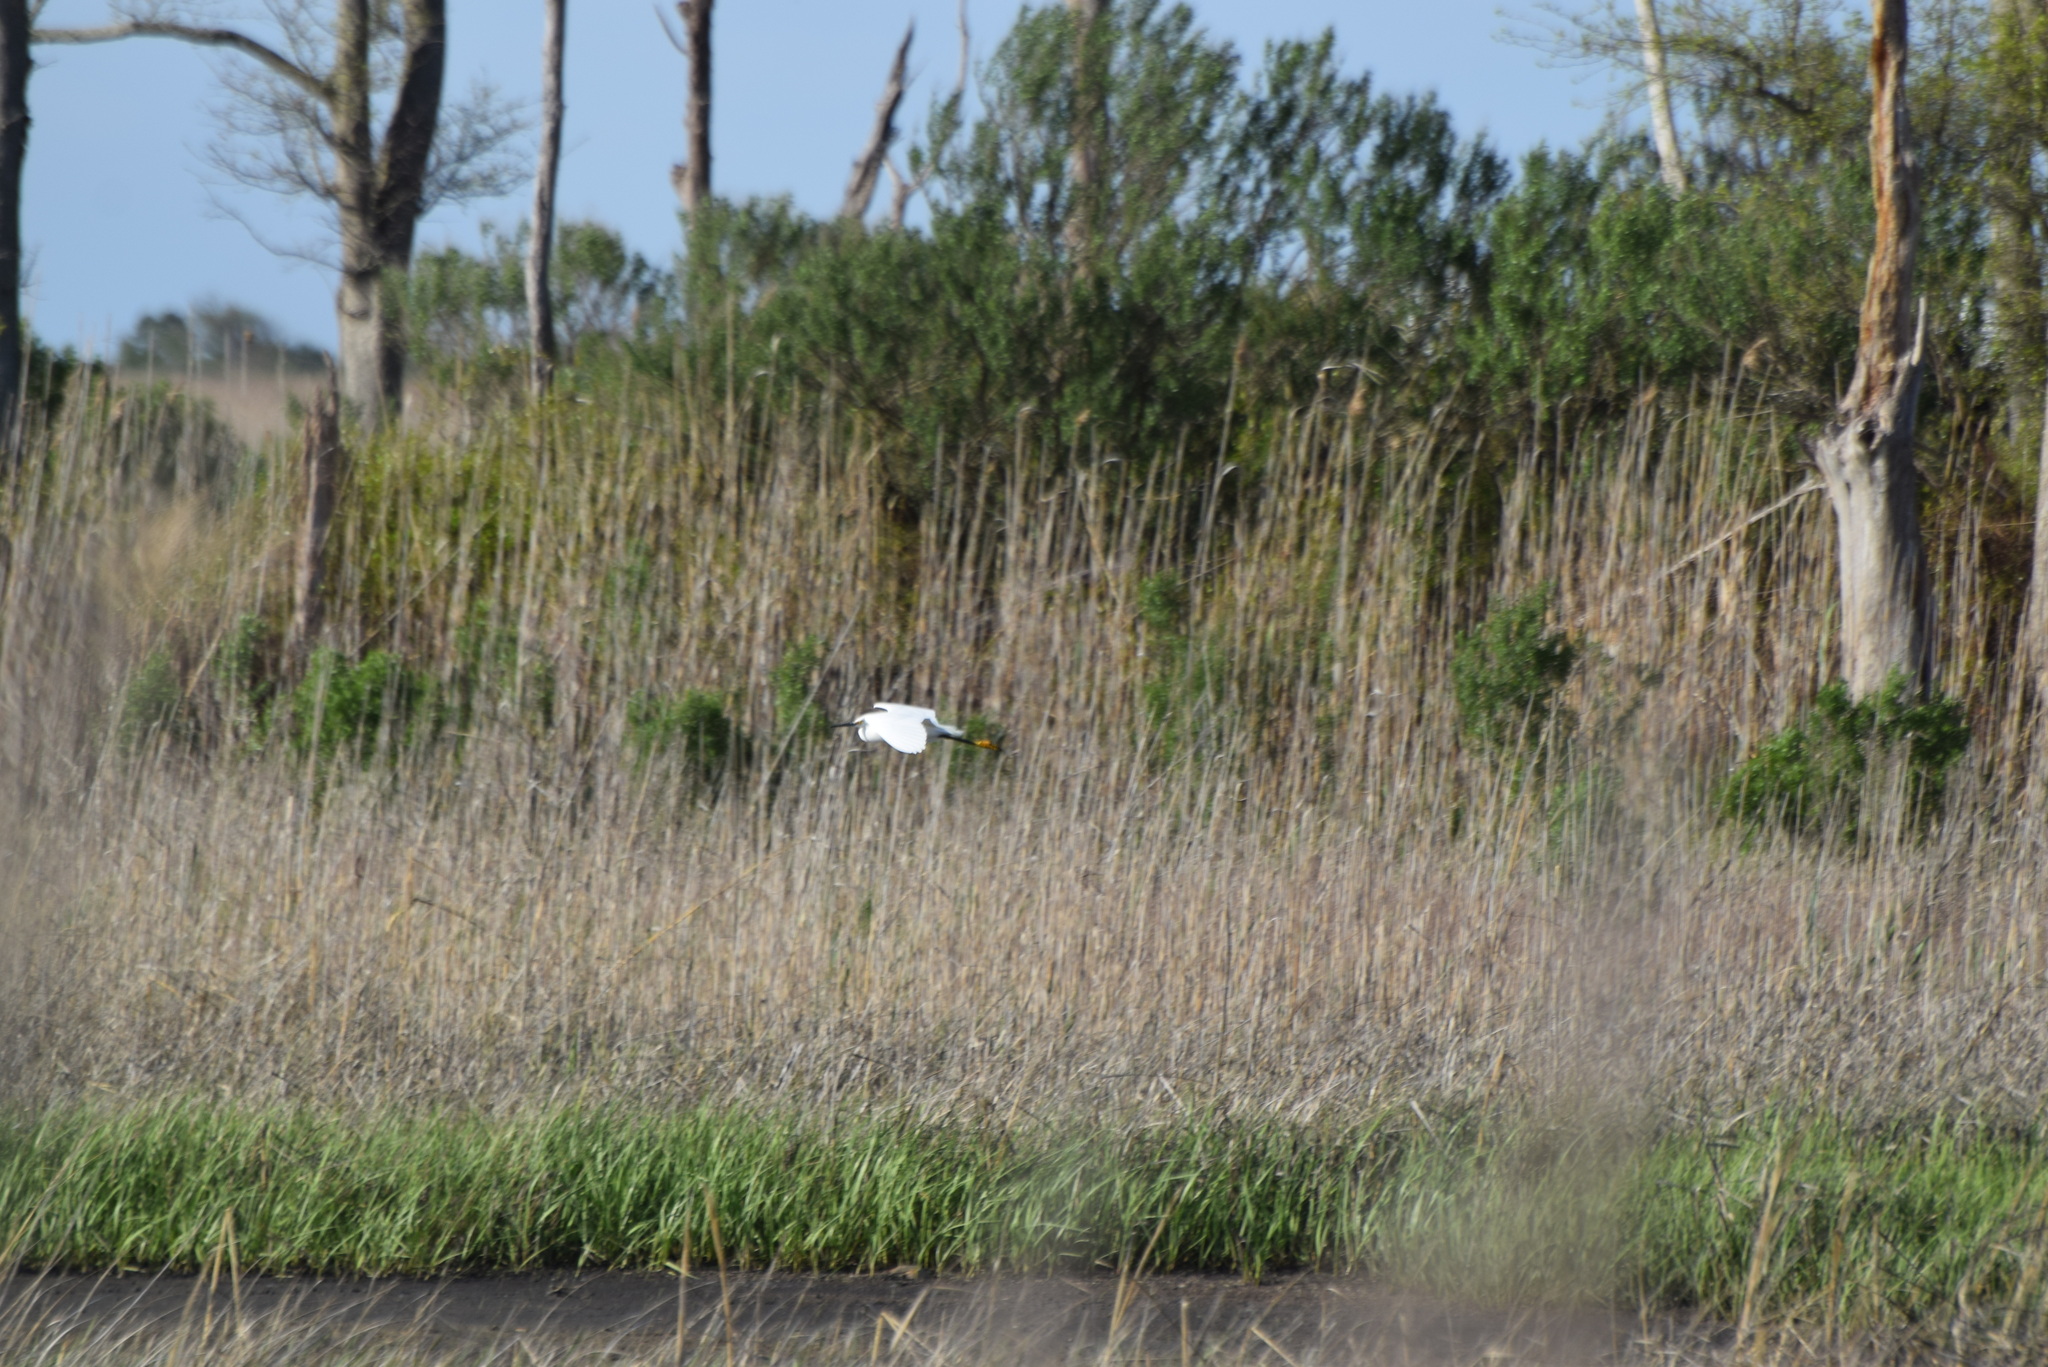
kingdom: Animalia
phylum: Chordata
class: Aves
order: Pelecaniformes
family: Ardeidae
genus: Egretta
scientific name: Egretta thula
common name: Snowy egret
